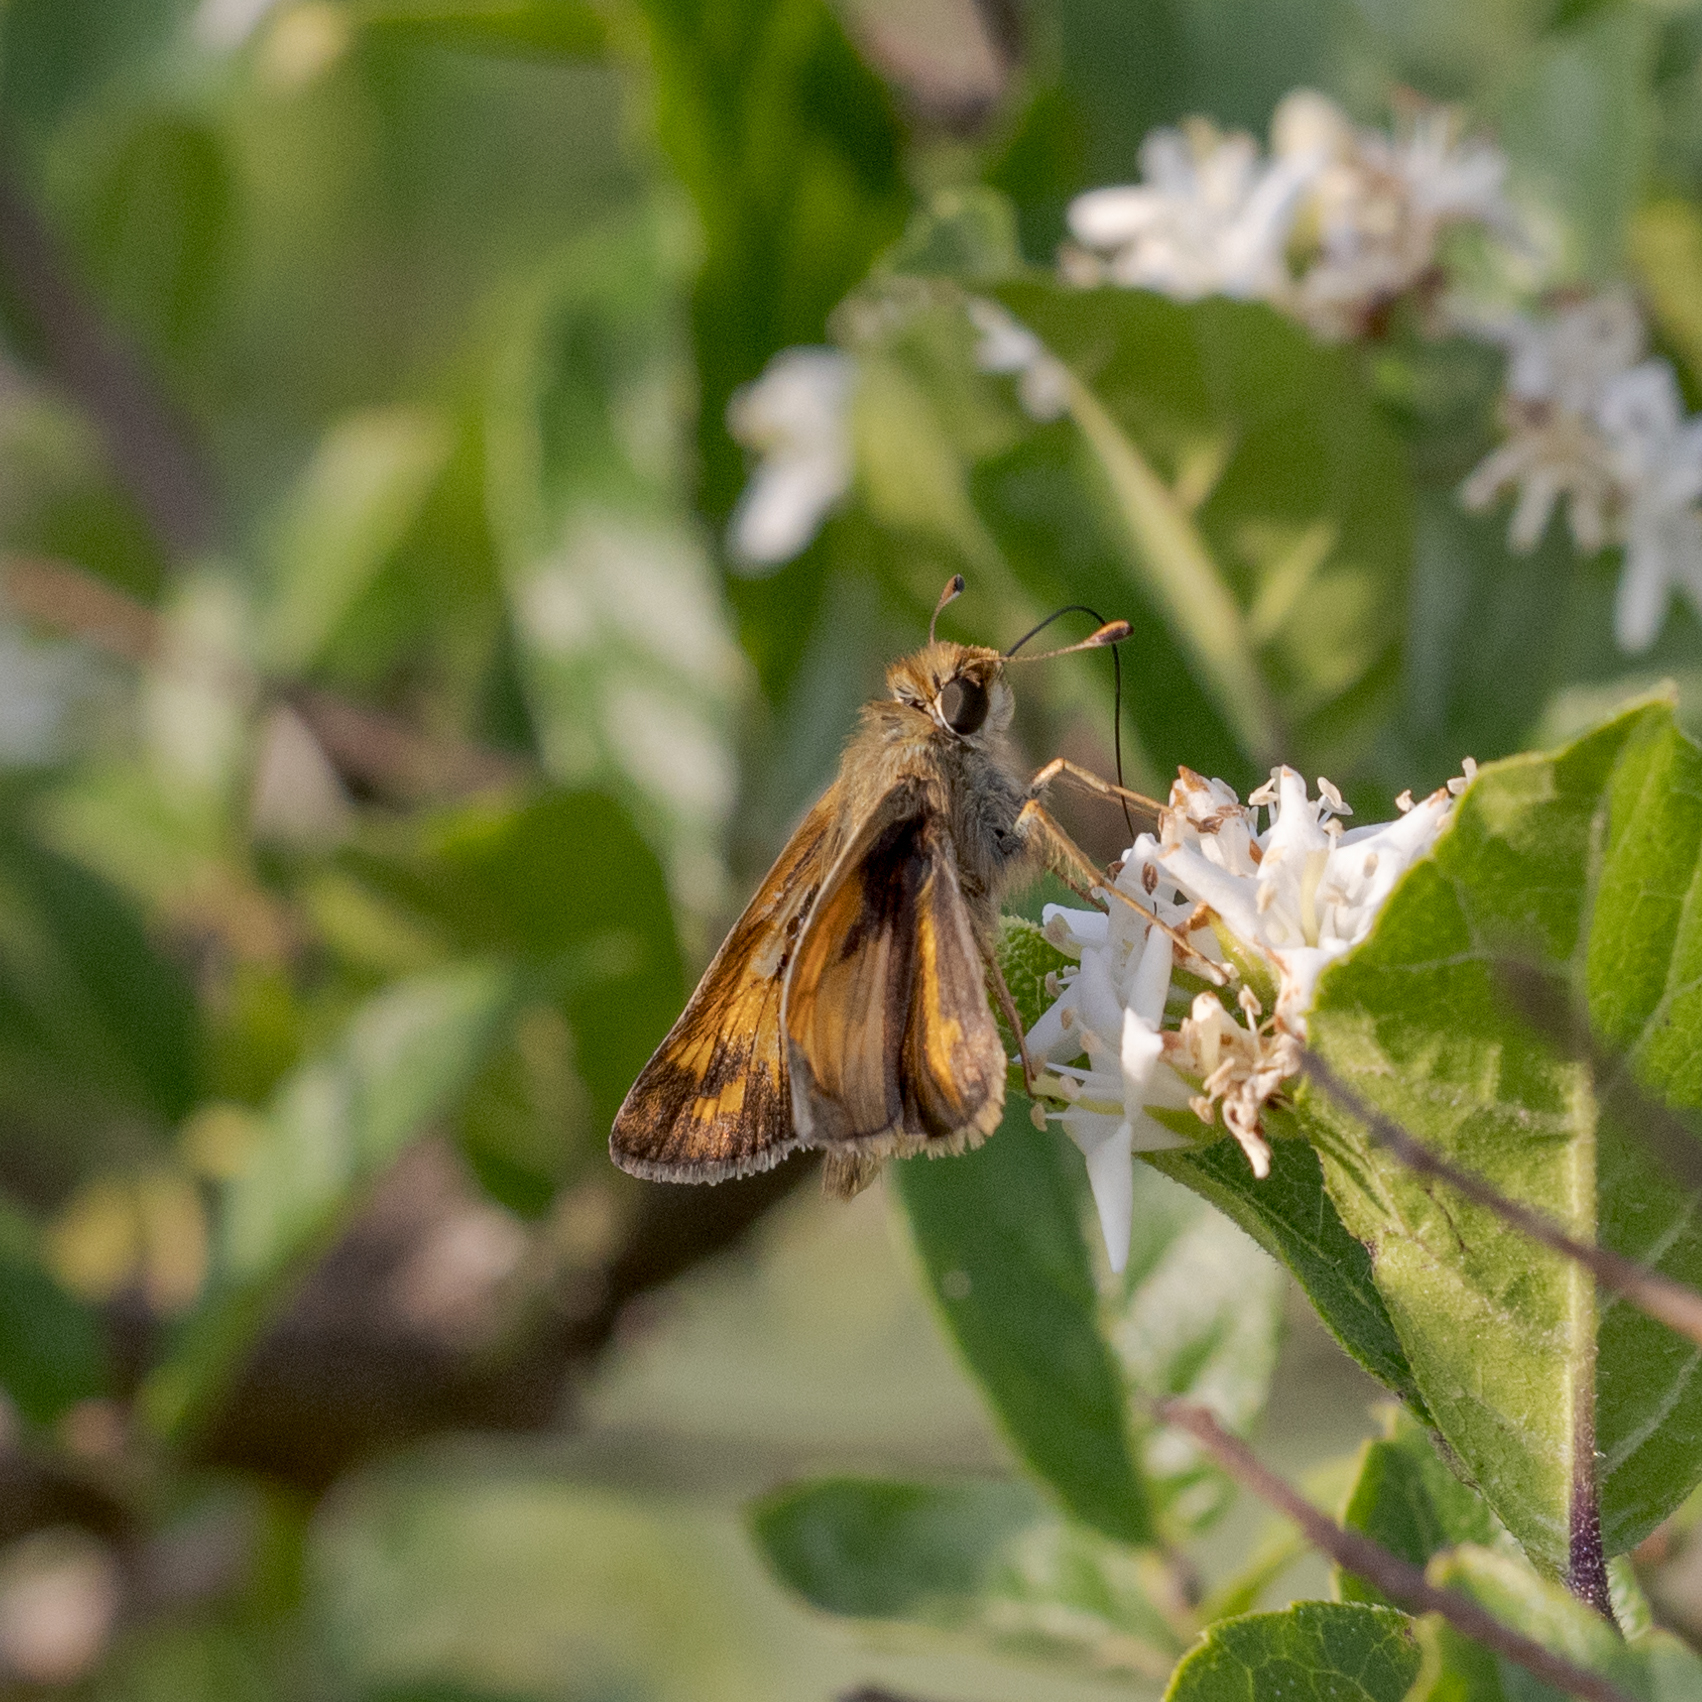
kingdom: Animalia
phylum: Arthropoda
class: Insecta
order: Lepidoptera
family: Hesperiidae
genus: Atalopedes
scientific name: Atalopedes
